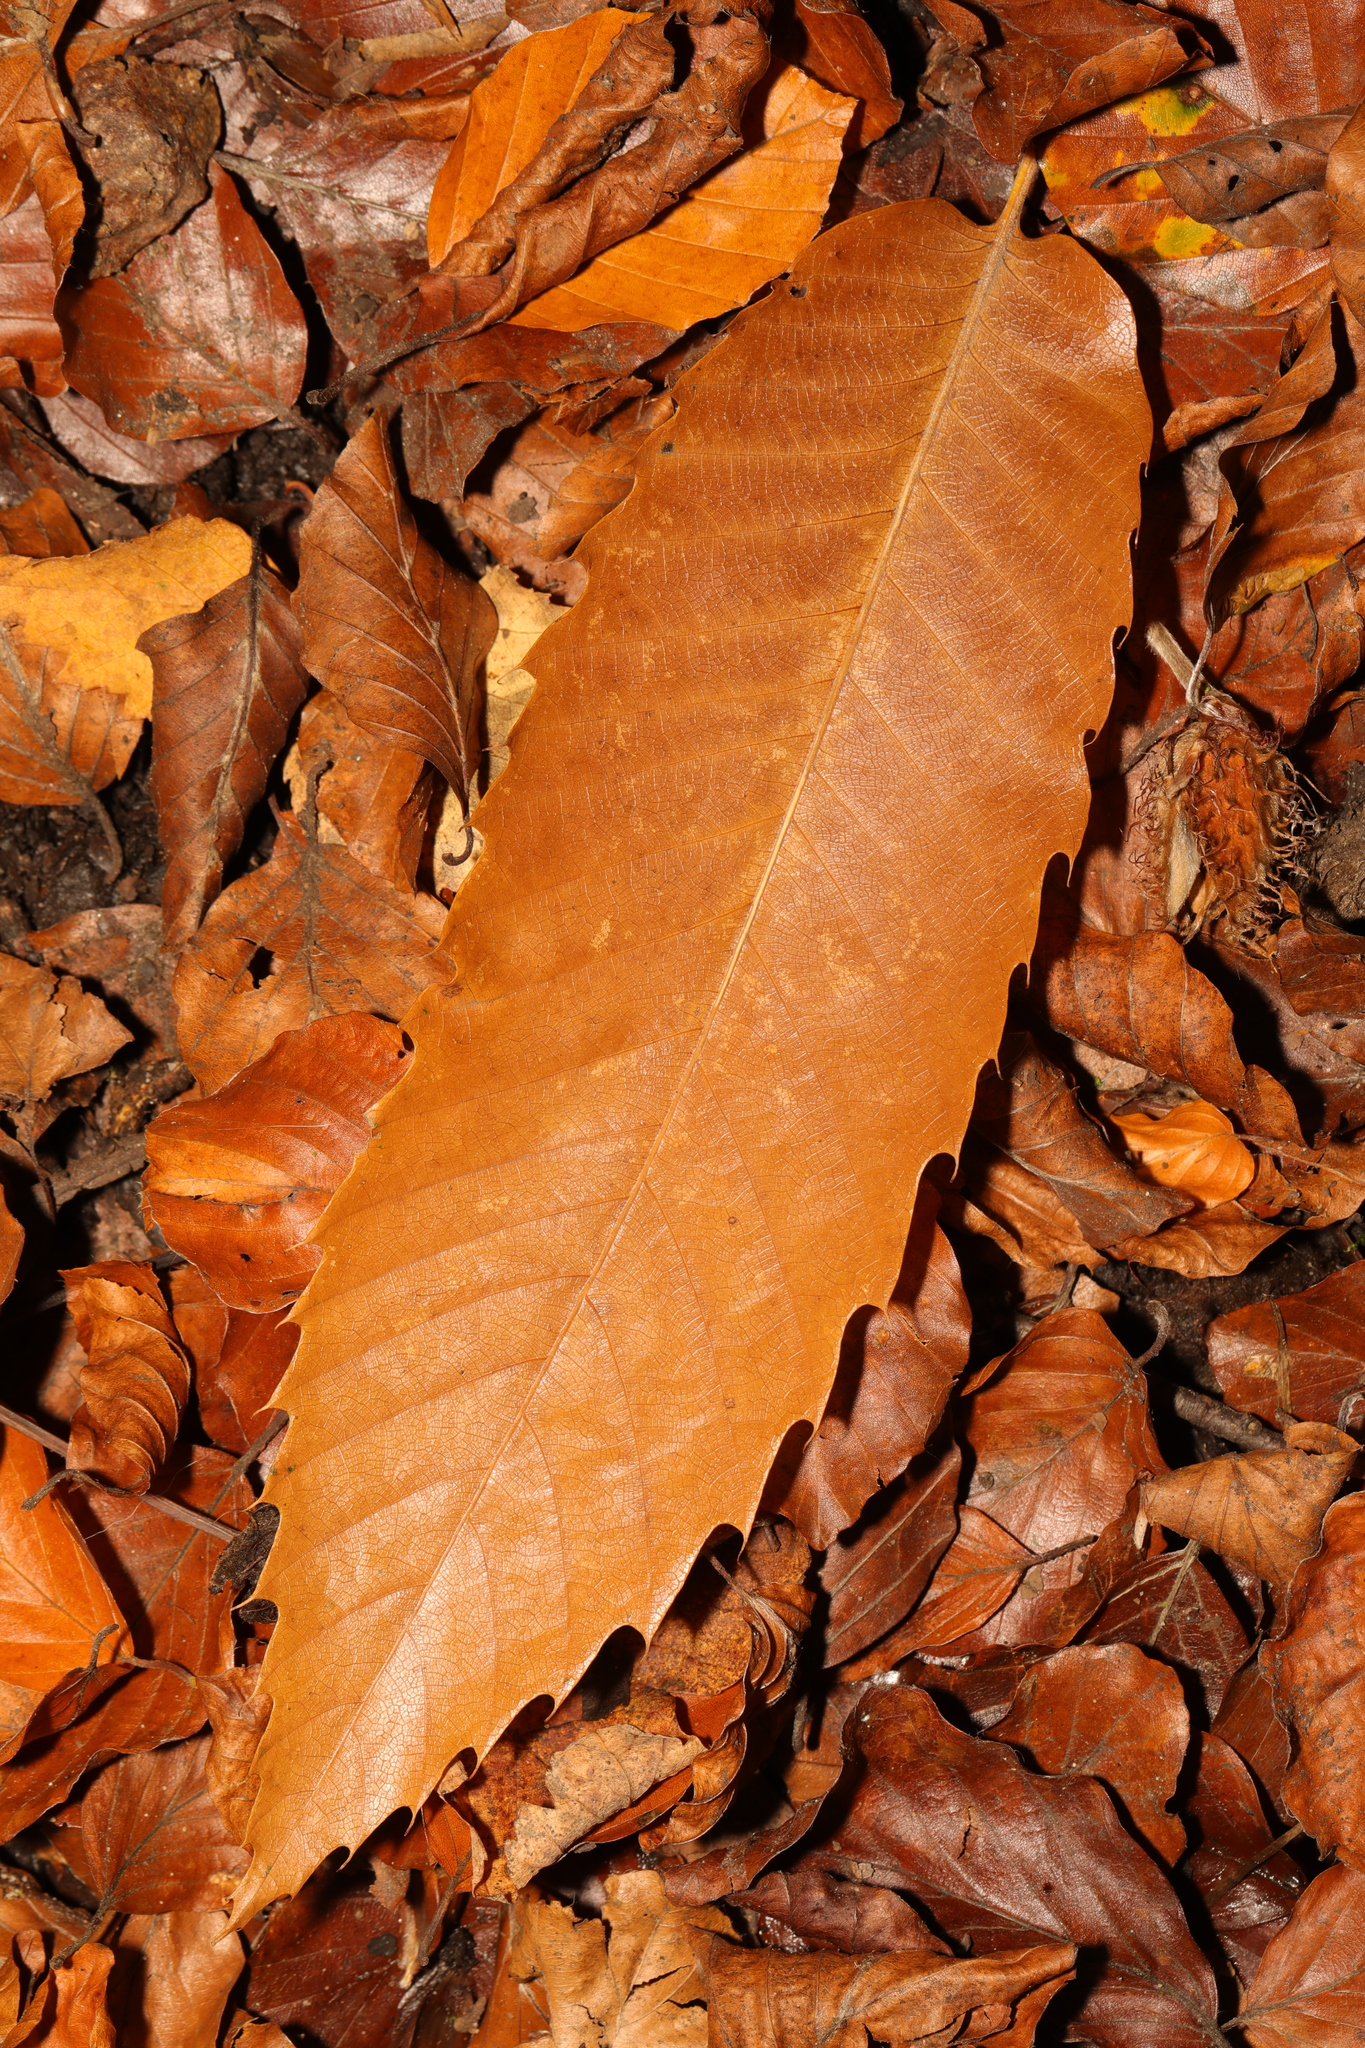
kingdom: Plantae
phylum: Tracheophyta
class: Magnoliopsida
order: Fagales
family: Fagaceae
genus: Castanea
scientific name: Castanea sativa
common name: Sweet chestnut
